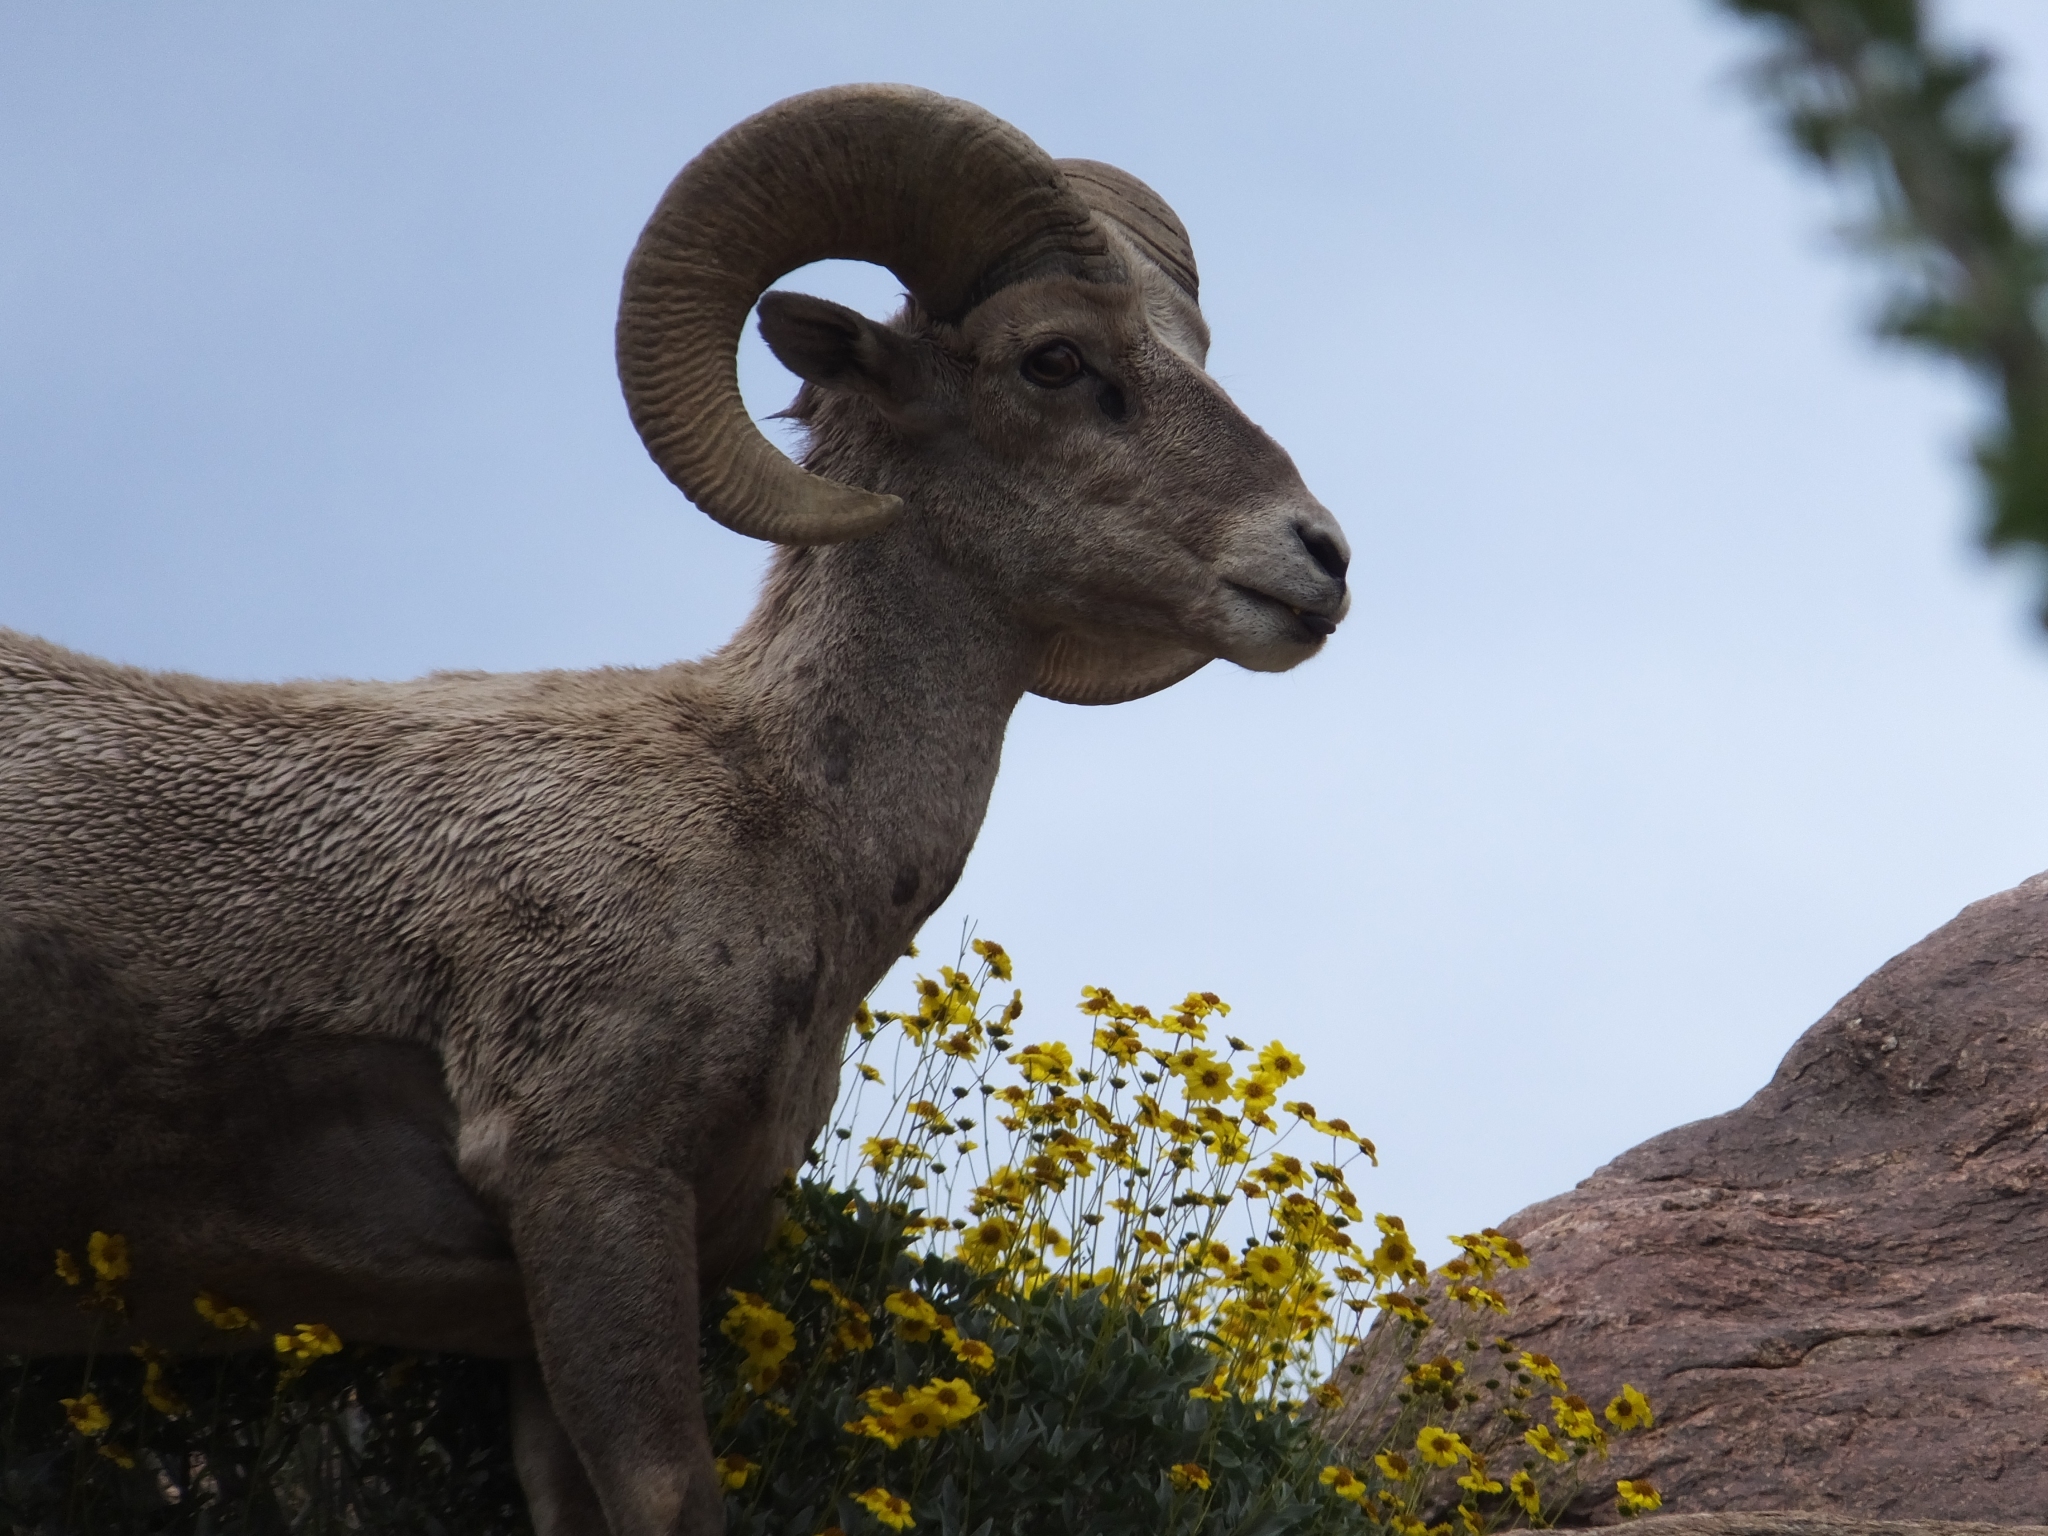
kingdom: Animalia
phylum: Chordata
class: Mammalia
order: Artiodactyla
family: Bovidae
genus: Ovis
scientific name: Ovis canadensis
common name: Bighorn sheep
